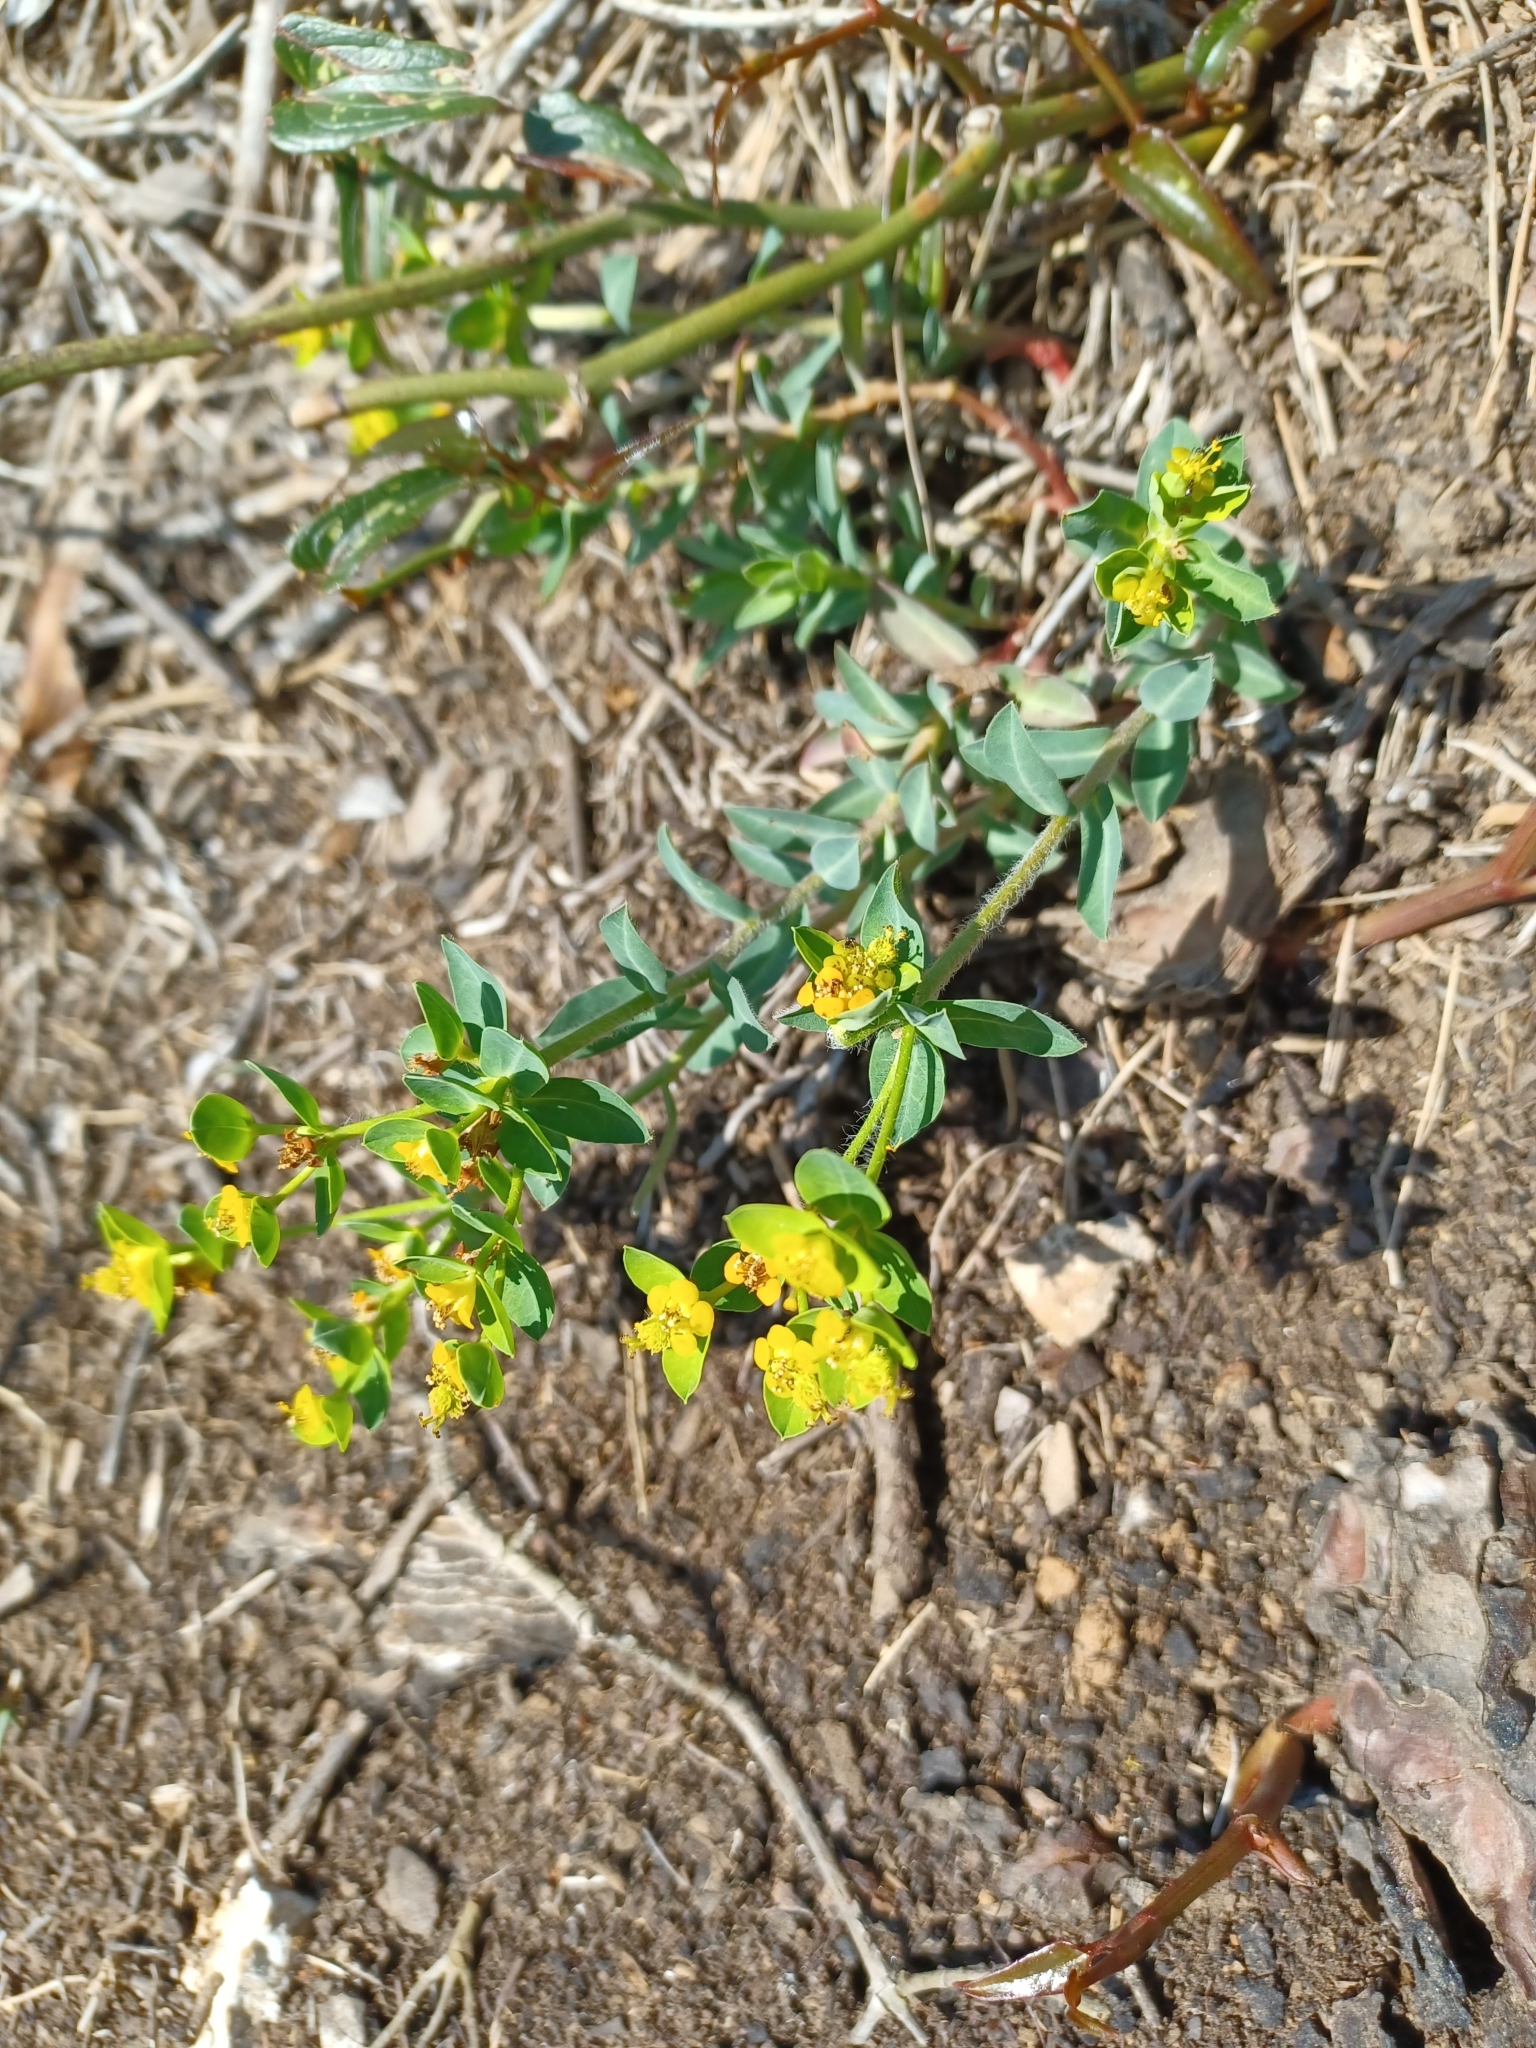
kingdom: Plantae
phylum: Tracheophyta
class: Magnoliopsida
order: Malpighiales
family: Euphorbiaceae
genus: Euphorbia
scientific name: Euphorbia fragifera
